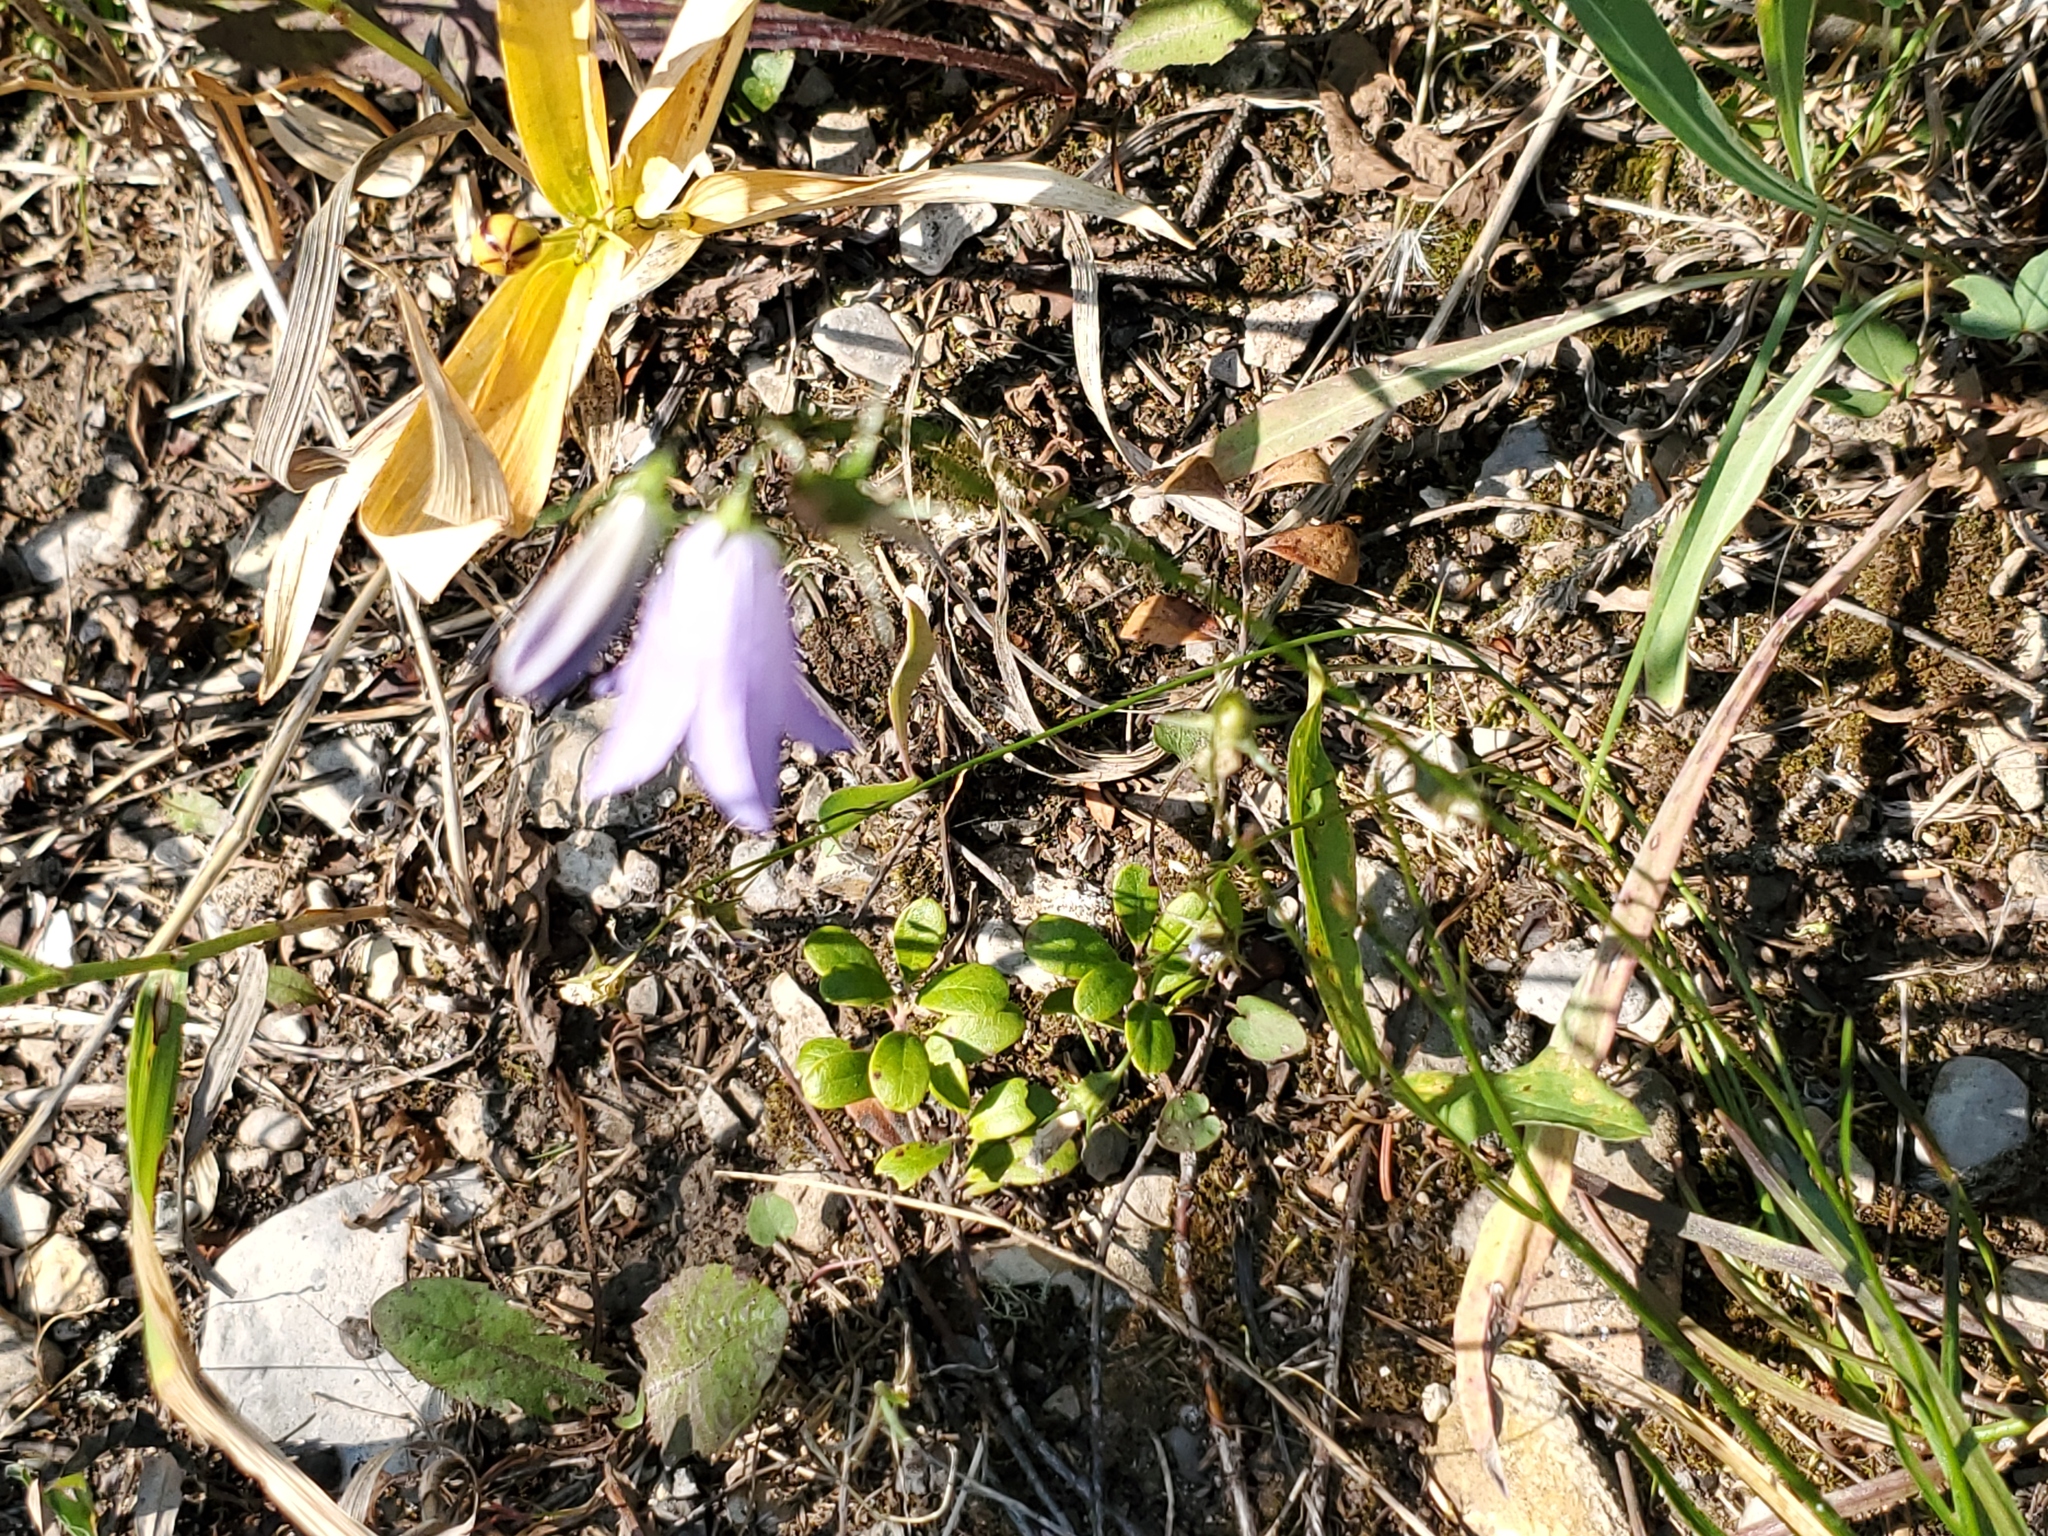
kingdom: Plantae
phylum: Tracheophyta
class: Magnoliopsida
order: Asterales
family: Campanulaceae
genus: Campanula
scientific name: Campanula petiolata
